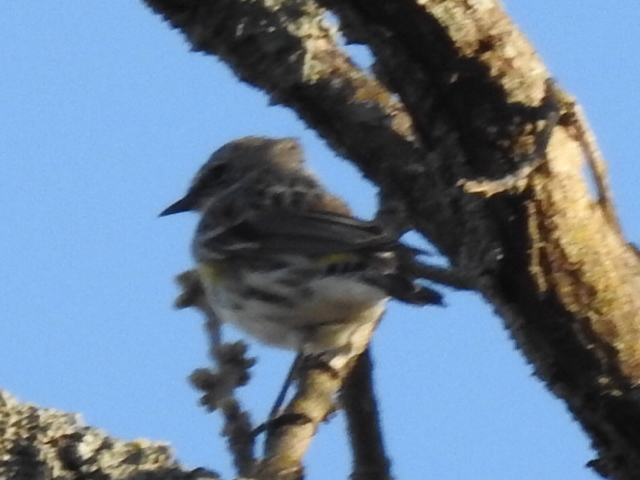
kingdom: Animalia
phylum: Chordata
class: Aves
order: Passeriformes
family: Parulidae
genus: Setophaga
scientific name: Setophaga coronata
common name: Myrtle warbler
